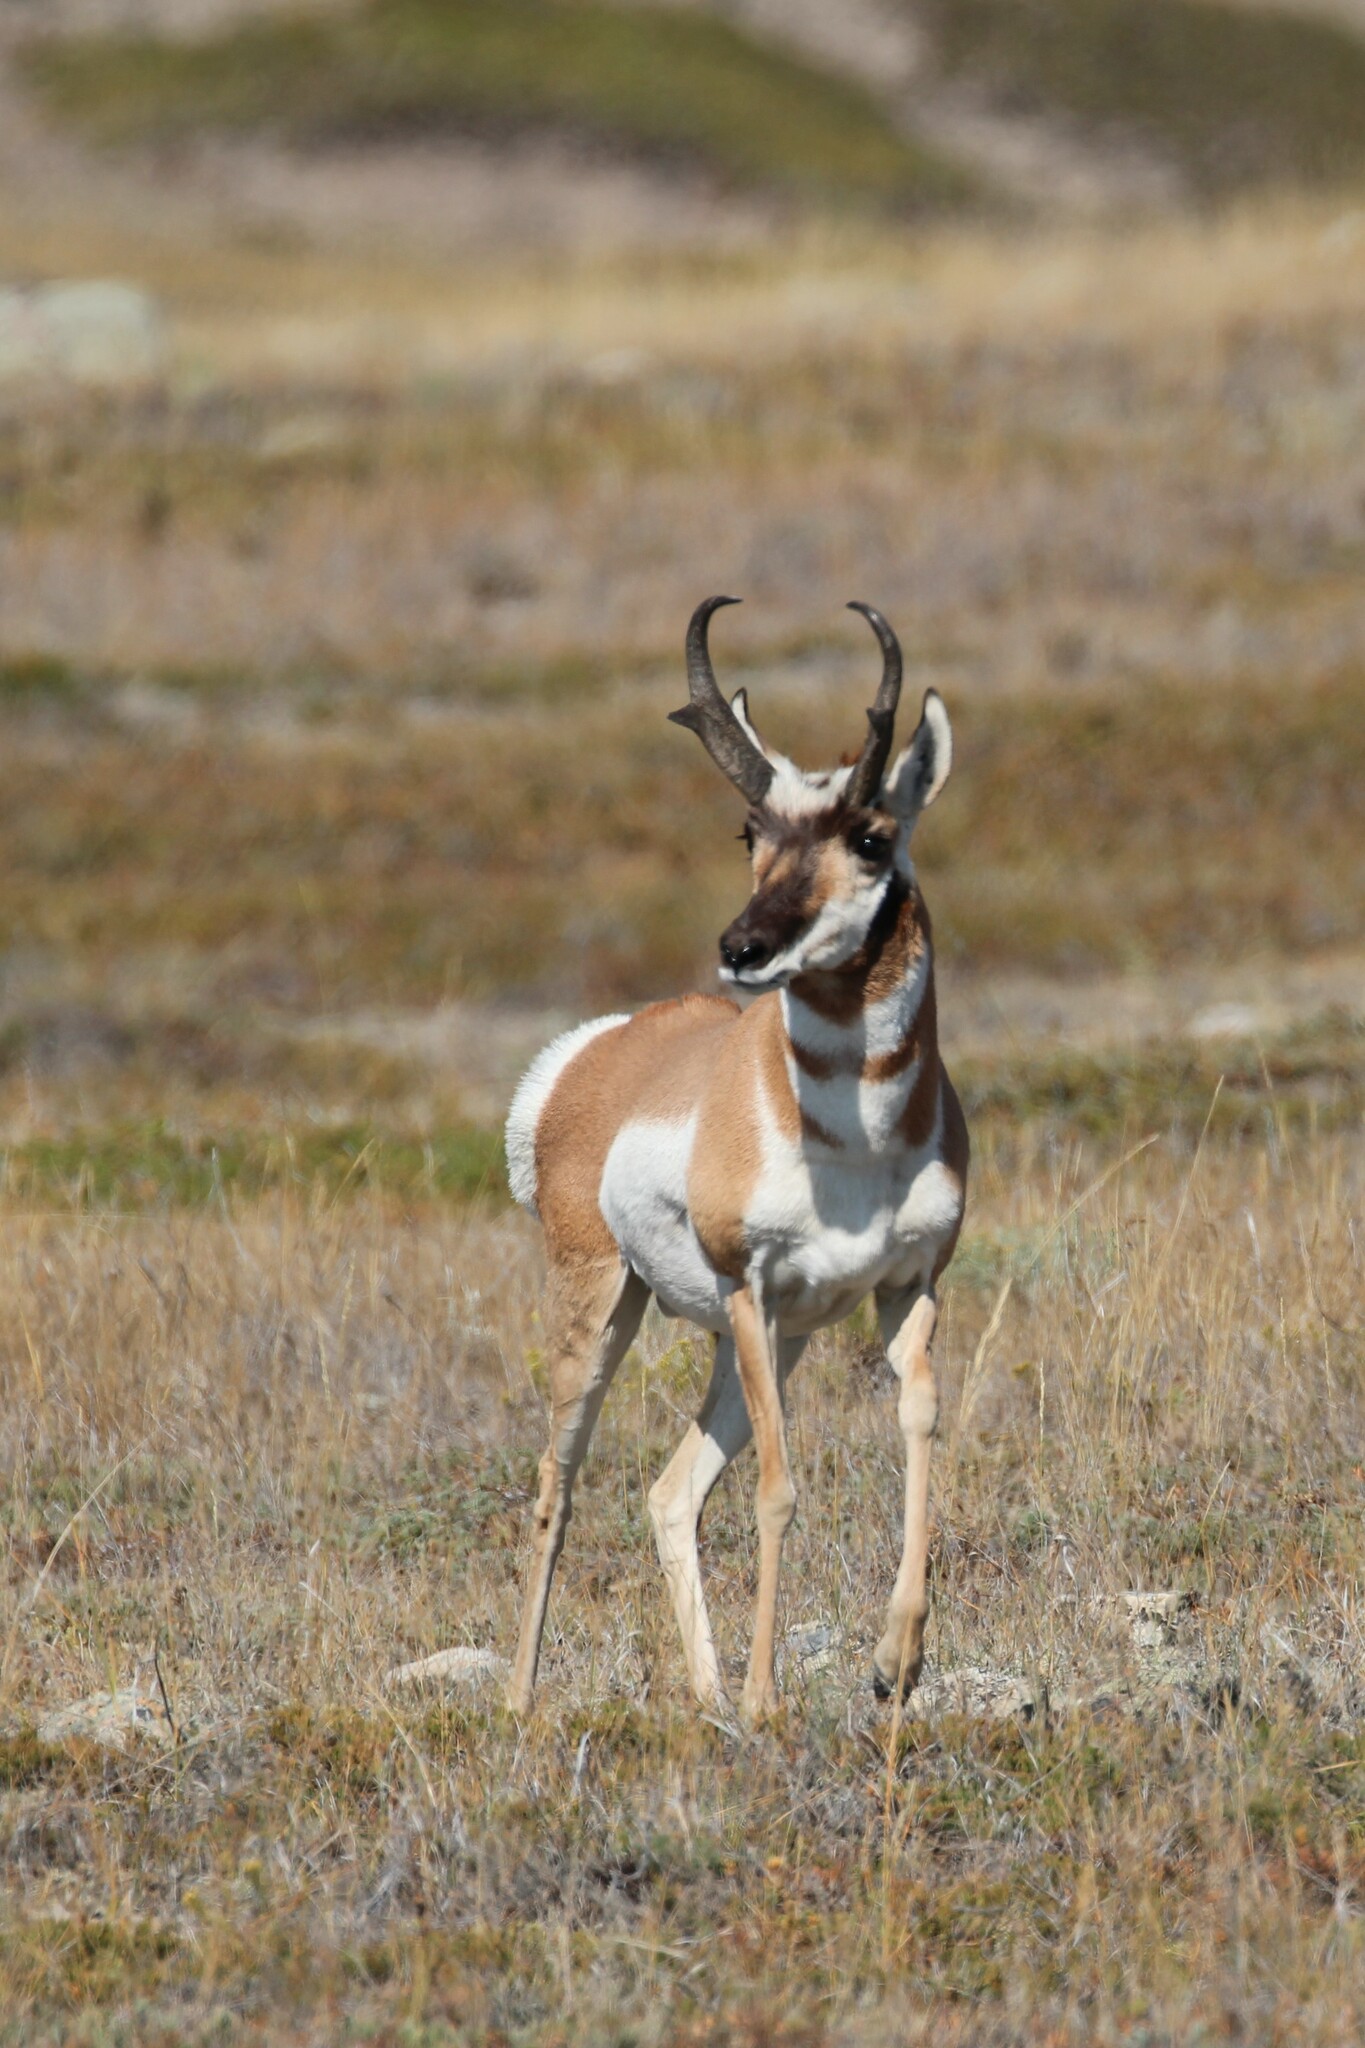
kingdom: Animalia
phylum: Chordata
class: Mammalia
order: Artiodactyla
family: Antilocapridae
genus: Antilocapra
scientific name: Antilocapra americana
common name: Pronghorn
